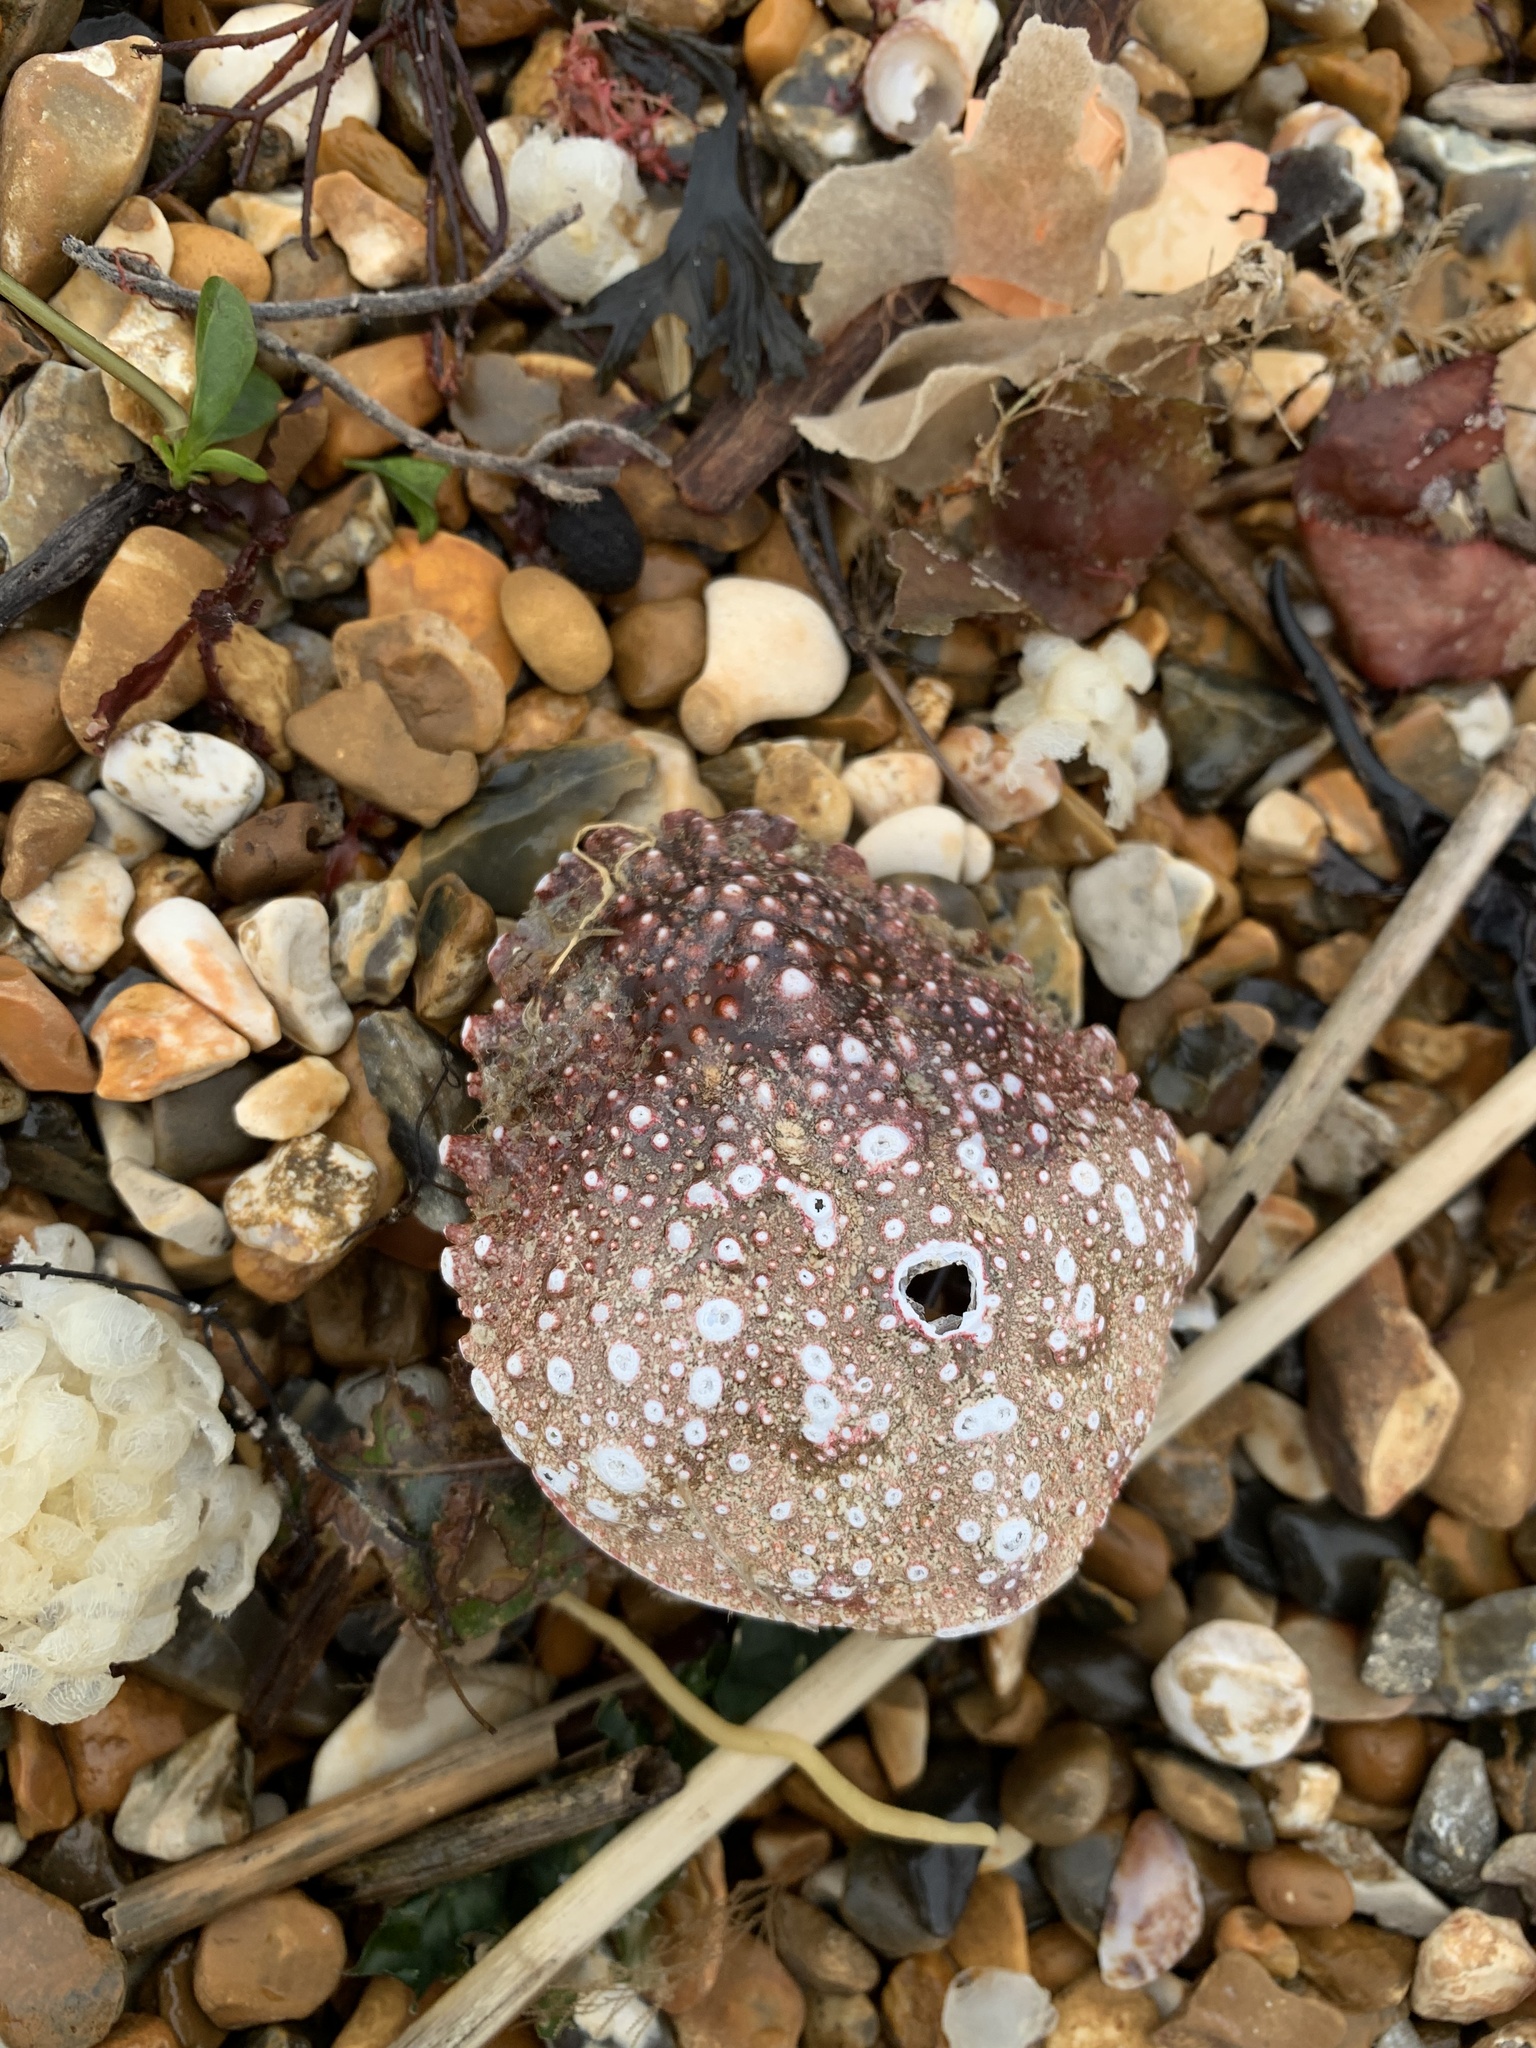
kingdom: Animalia
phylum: Arthropoda
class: Malacostraca
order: Decapoda
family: Majidae
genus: Maja
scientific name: Maja brachydactyla
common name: Common spider crab
